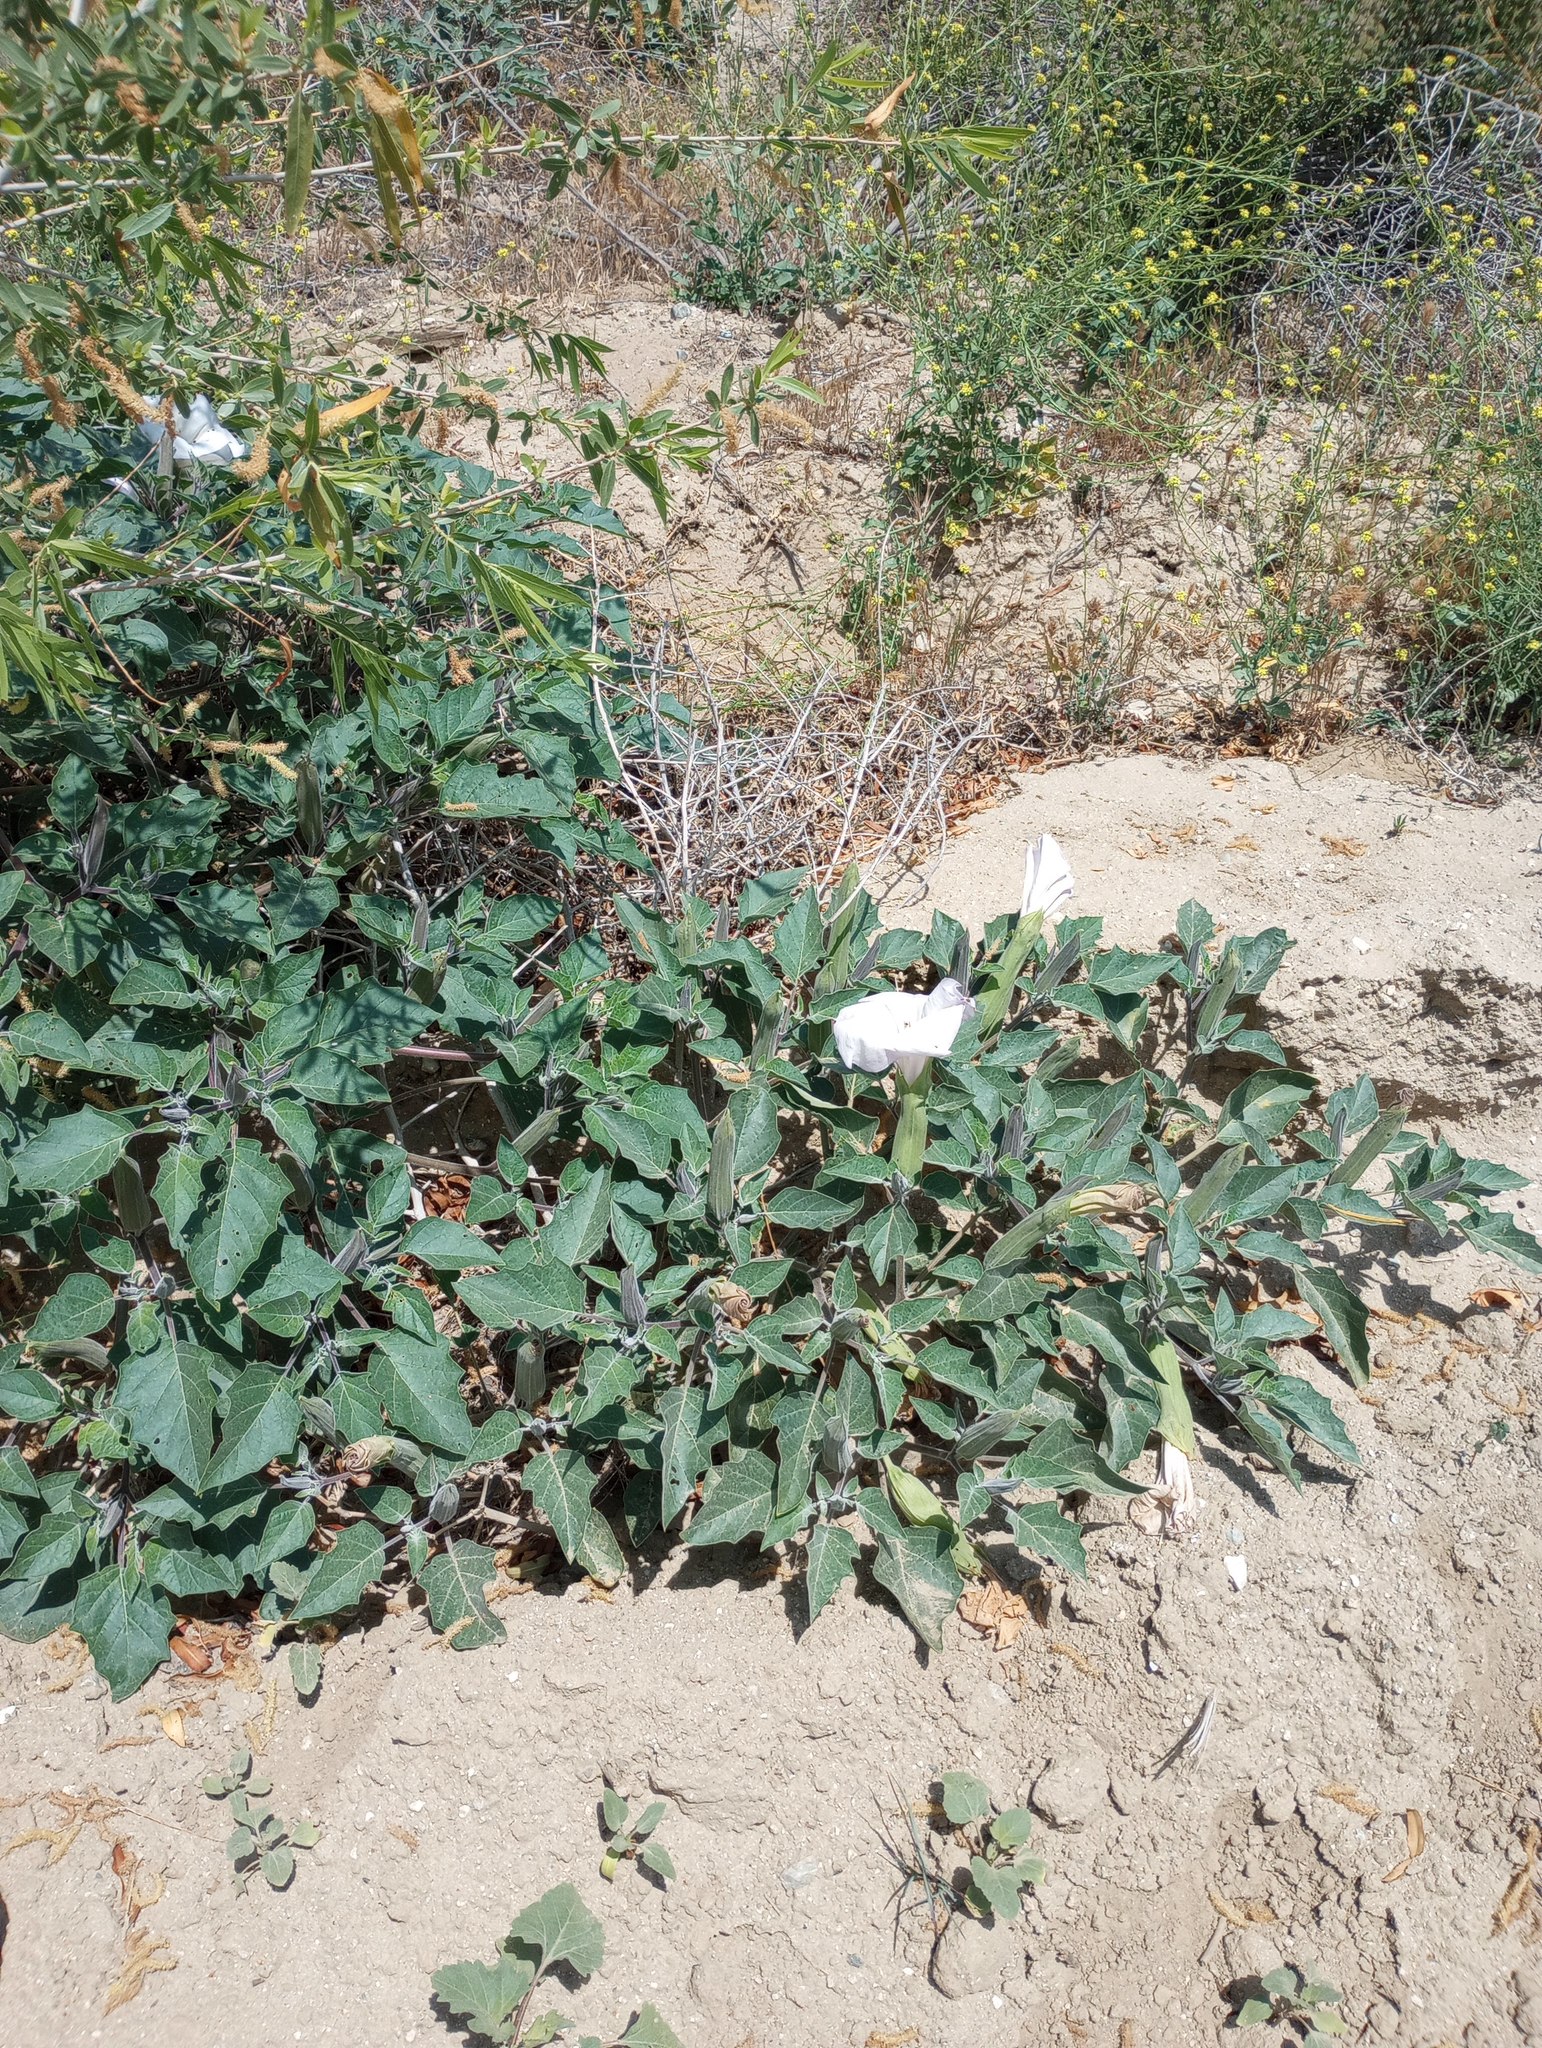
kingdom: Plantae
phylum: Tracheophyta
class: Magnoliopsida
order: Solanales
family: Solanaceae
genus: Datura
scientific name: Datura wrightii
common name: Sacred thorn-apple
